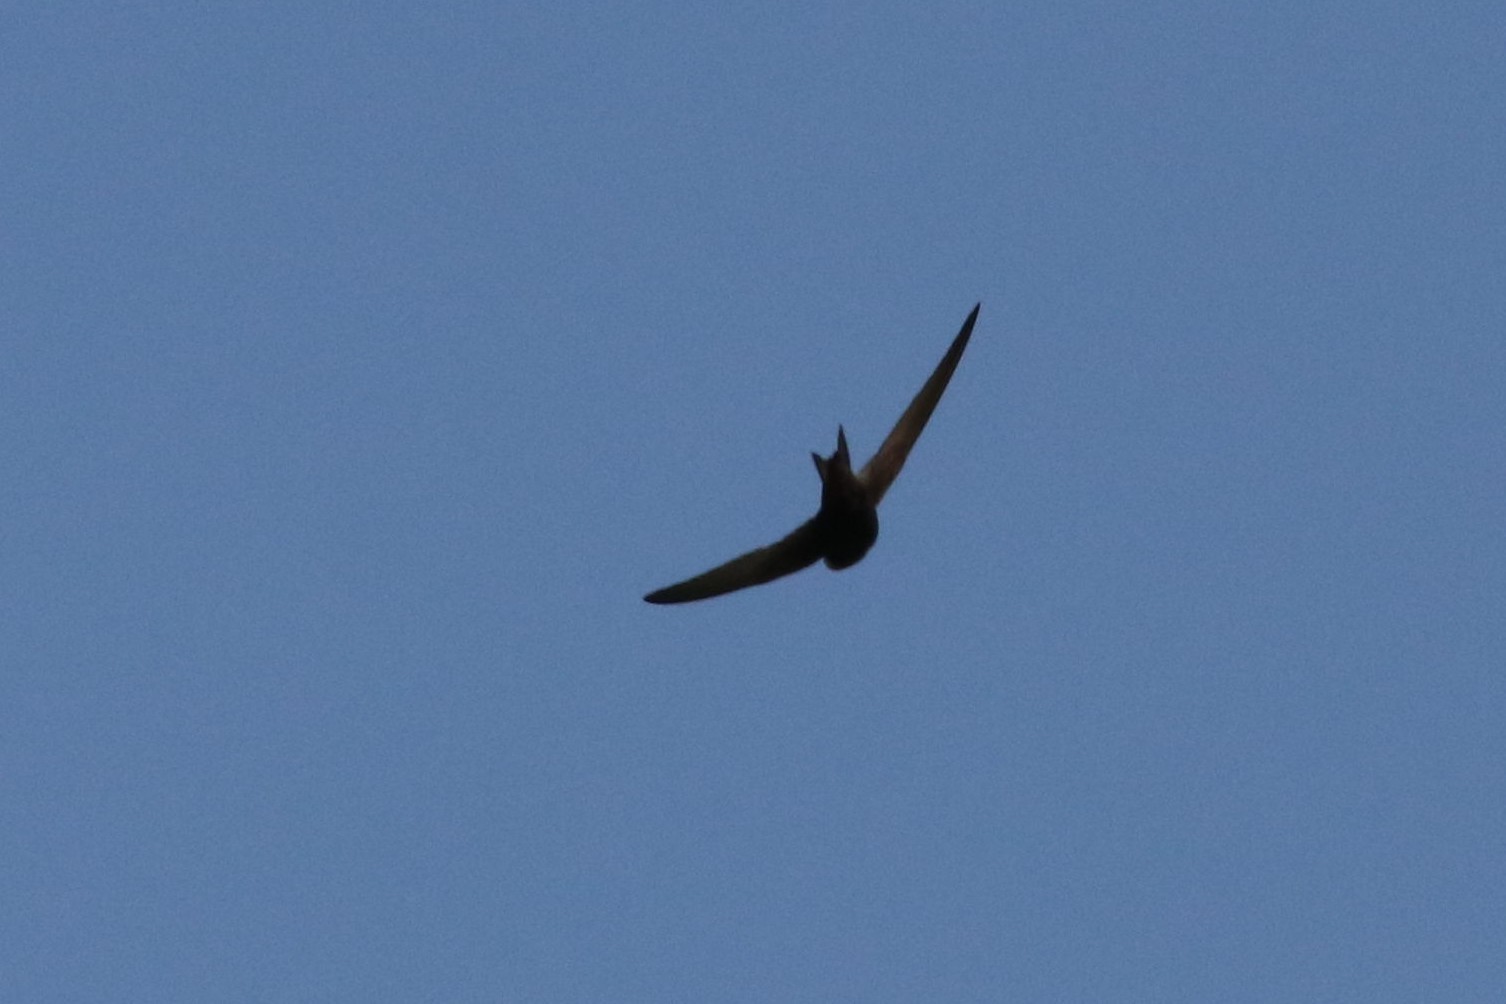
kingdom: Animalia
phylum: Chordata
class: Aves
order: Apodiformes
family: Apodidae
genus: Apus
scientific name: Apus apus
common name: Common swift
